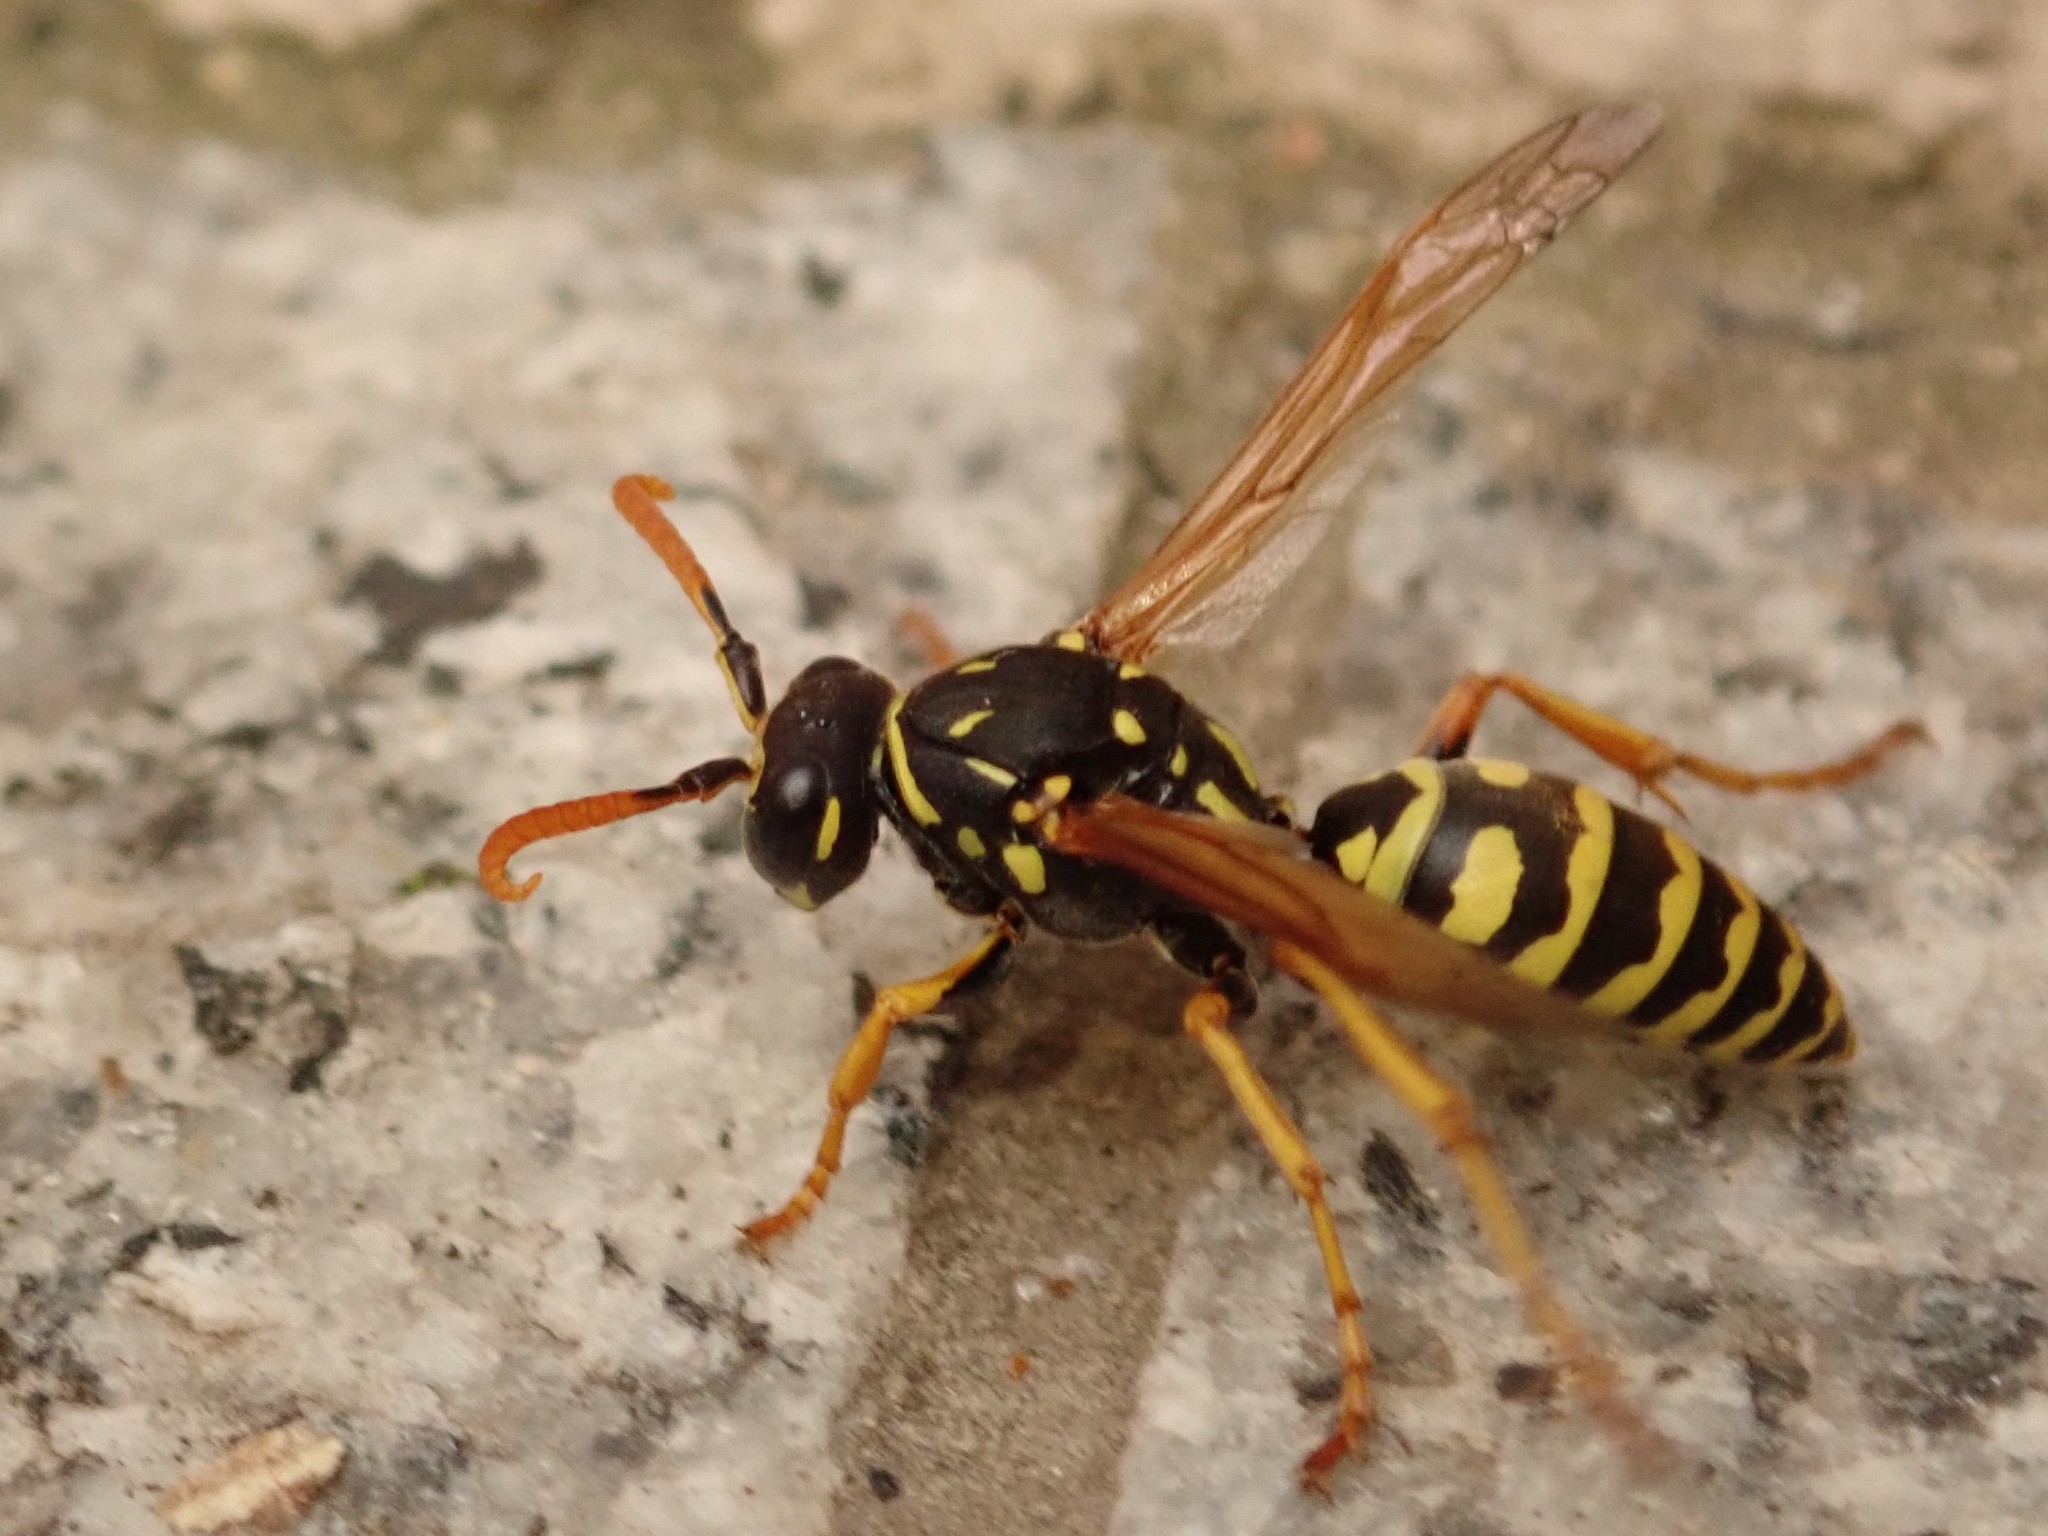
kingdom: Animalia
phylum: Arthropoda
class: Insecta
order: Hymenoptera
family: Eumenidae
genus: Polistes
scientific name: Polistes dominula
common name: Paper wasp
